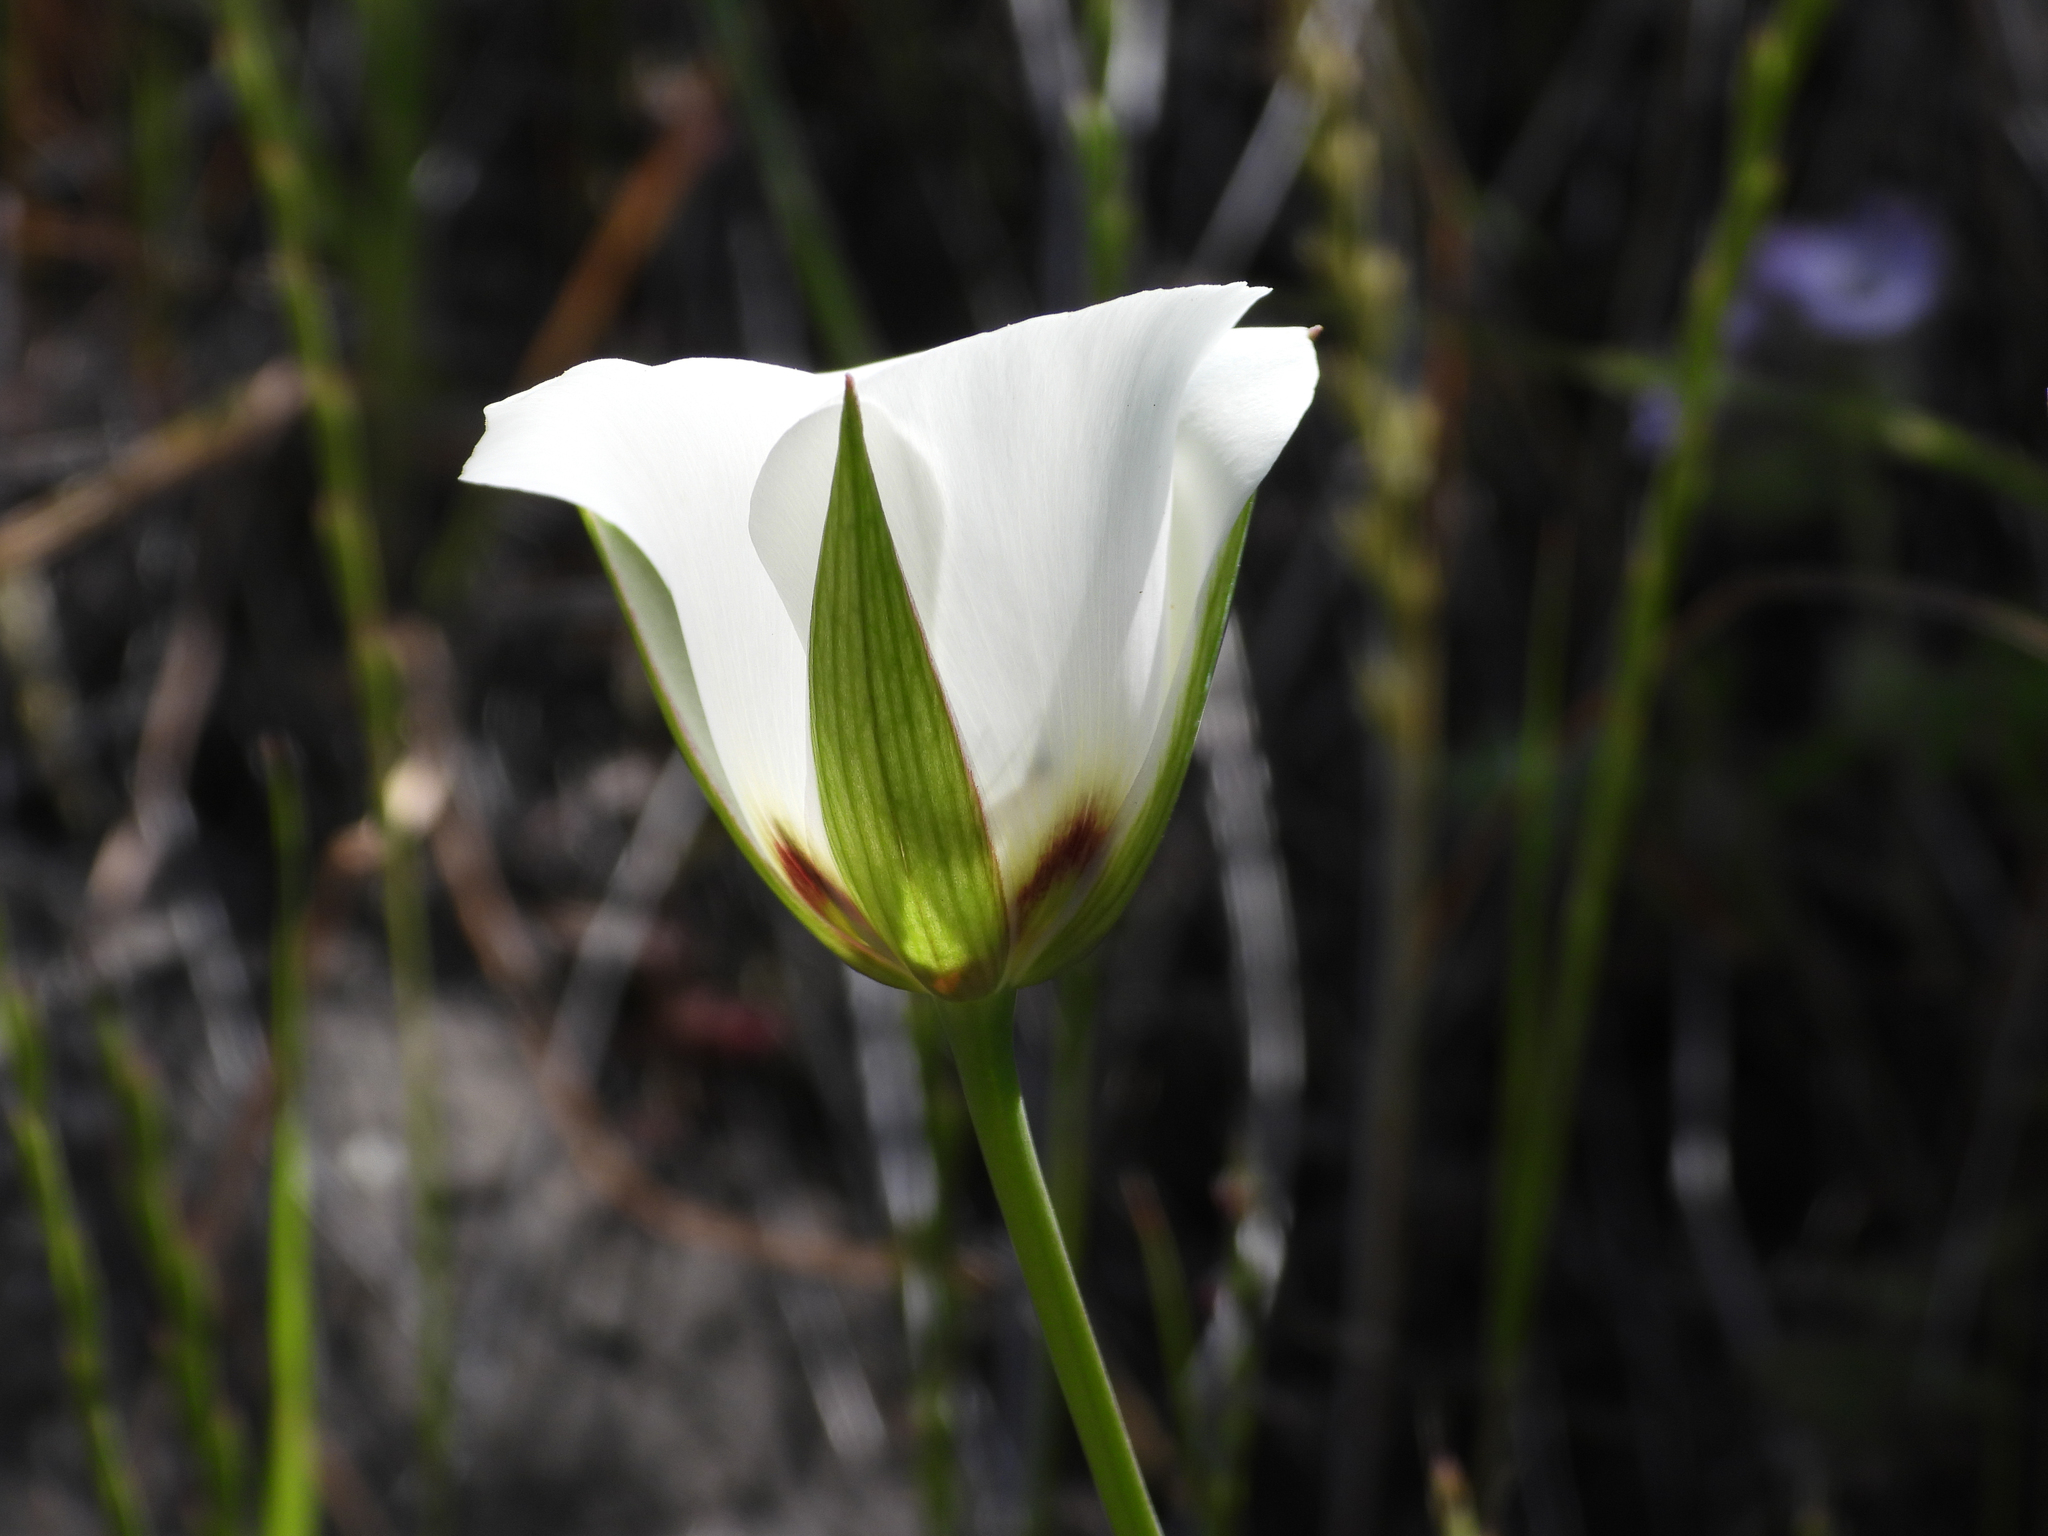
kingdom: Plantae
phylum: Tracheophyta
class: Liliopsida
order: Liliales
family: Liliaceae
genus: Calochortus
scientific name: Calochortus catalinae
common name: Catalina mariposa-lily
